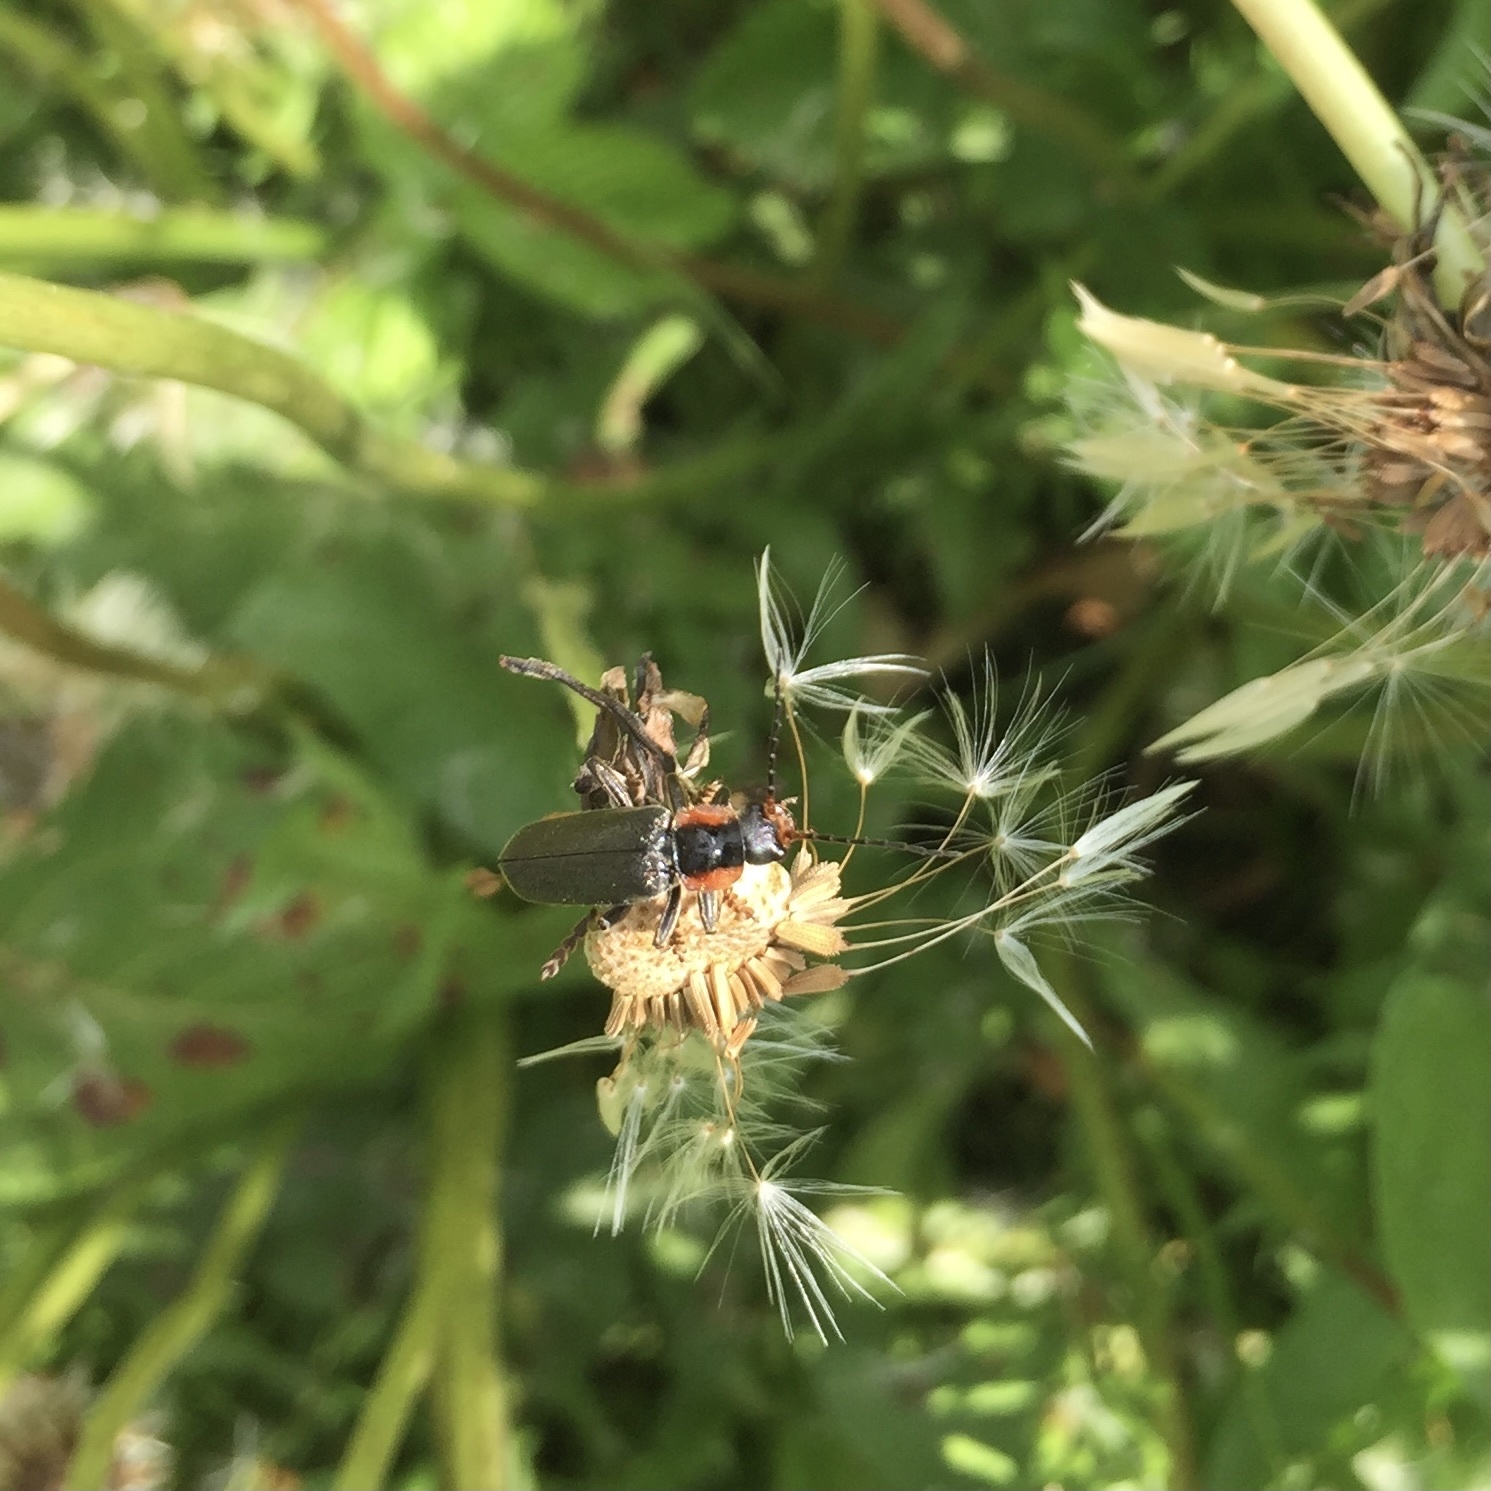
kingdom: Animalia
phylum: Arthropoda
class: Insecta
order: Coleoptera
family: Cantharidae
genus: Cantharis
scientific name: Cantharis fusca
